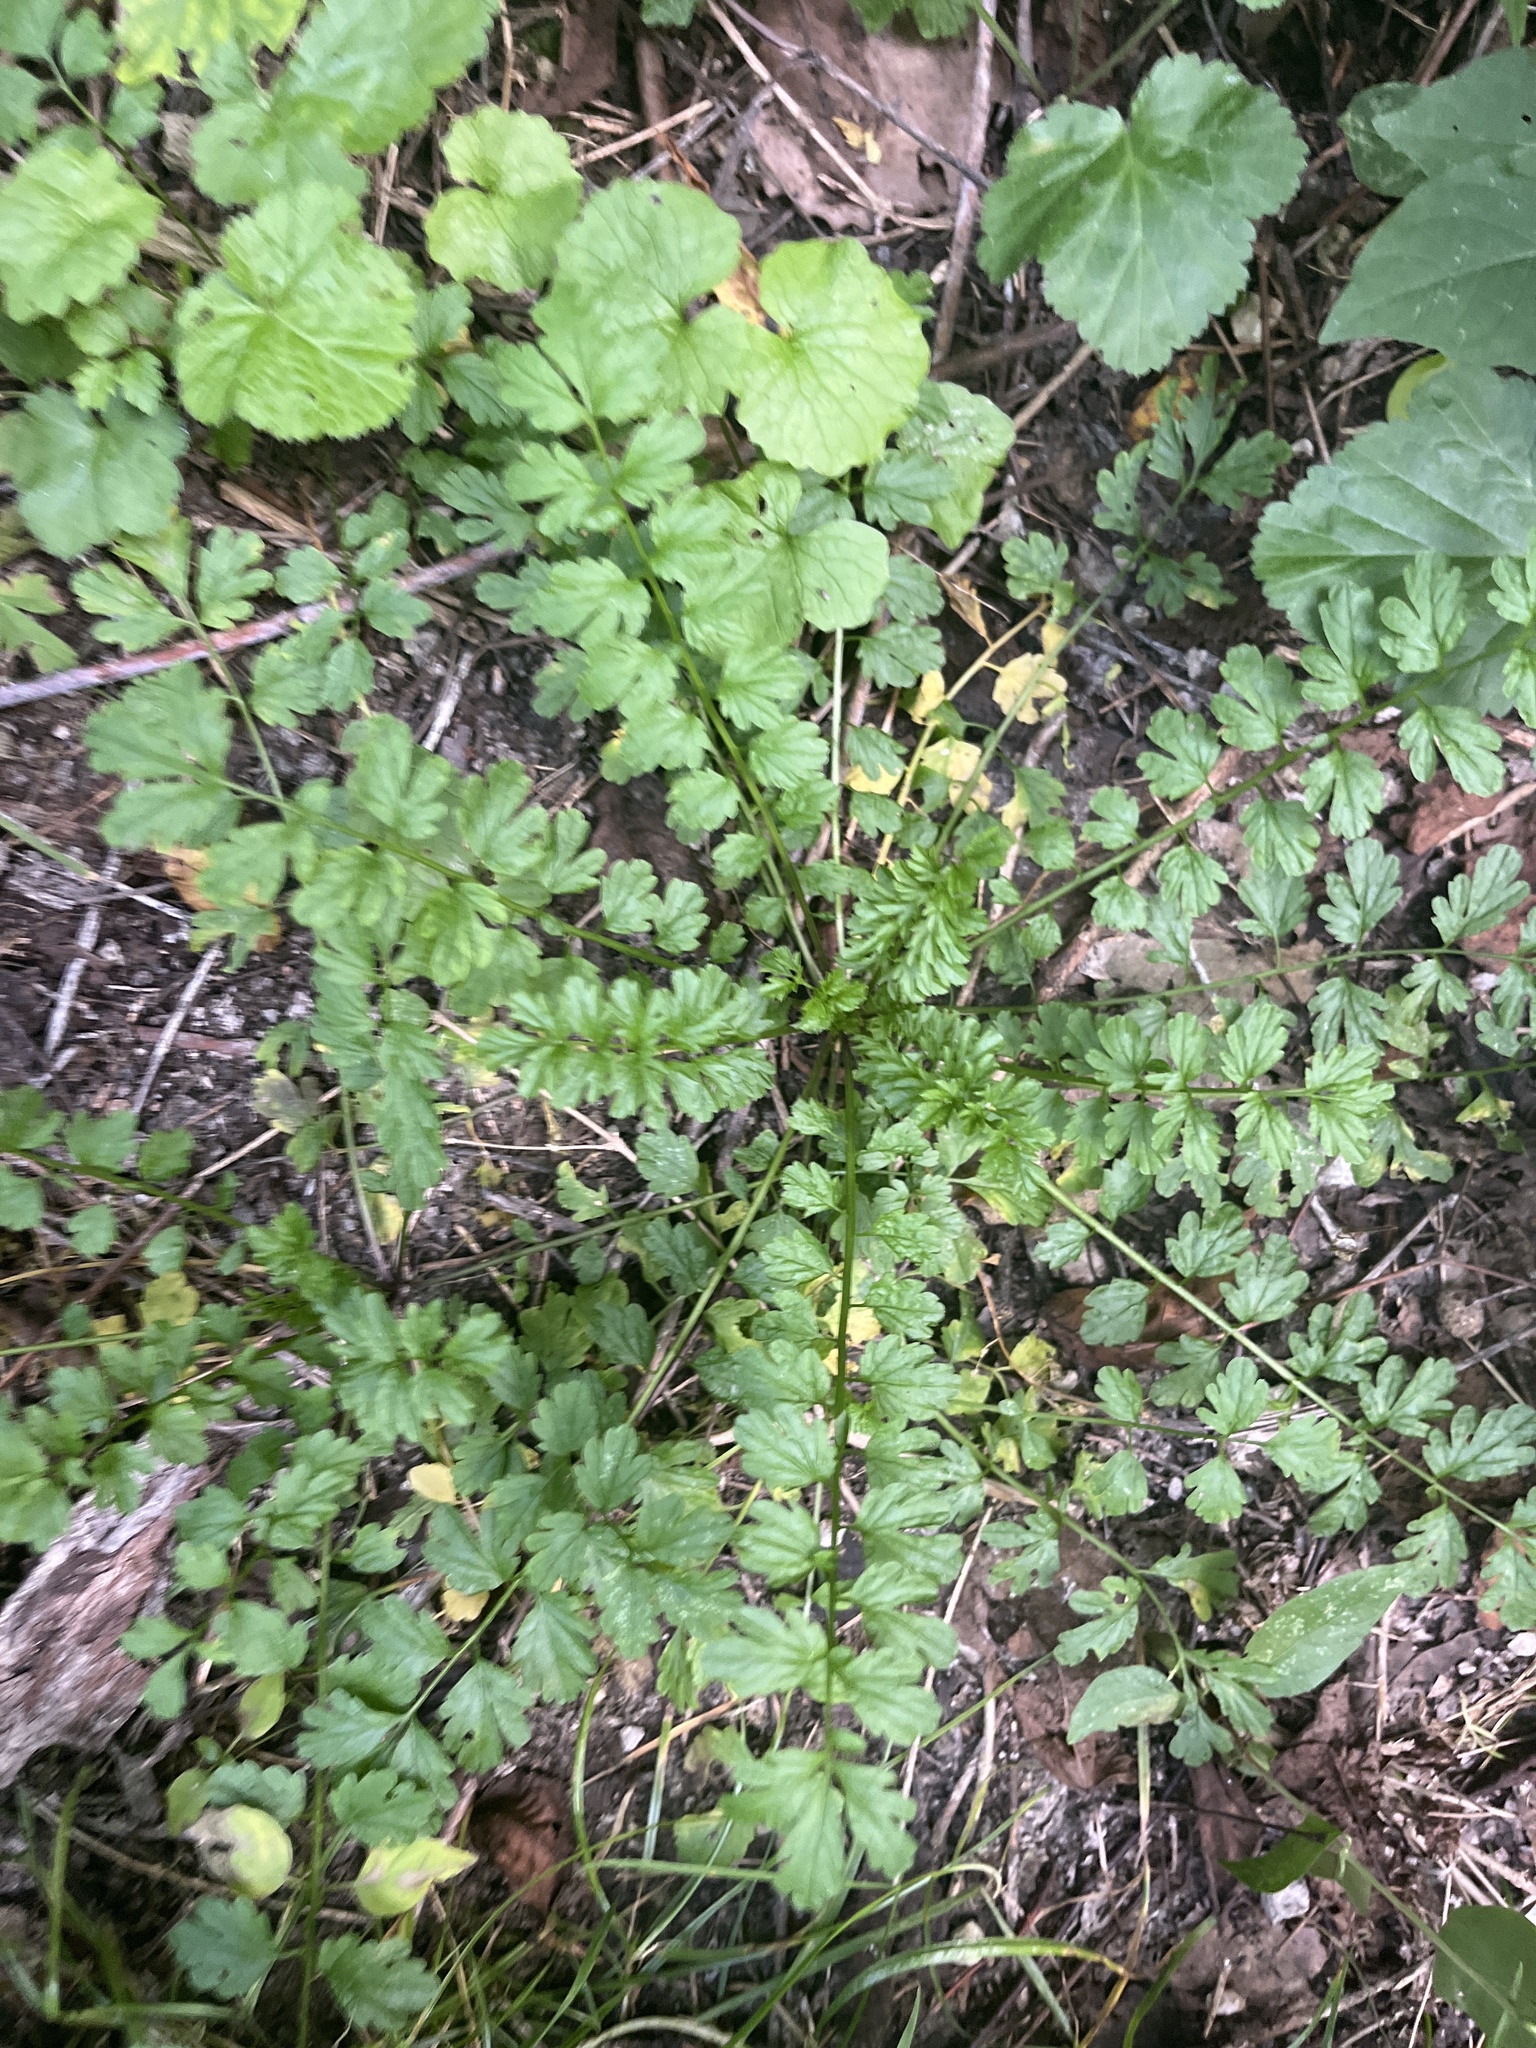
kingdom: Plantae
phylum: Tracheophyta
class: Magnoliopsida
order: Brassicales
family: Brassicaceae
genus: Cardamine
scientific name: Cardamine impatiens
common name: Narrow-leaved bitter-cress
